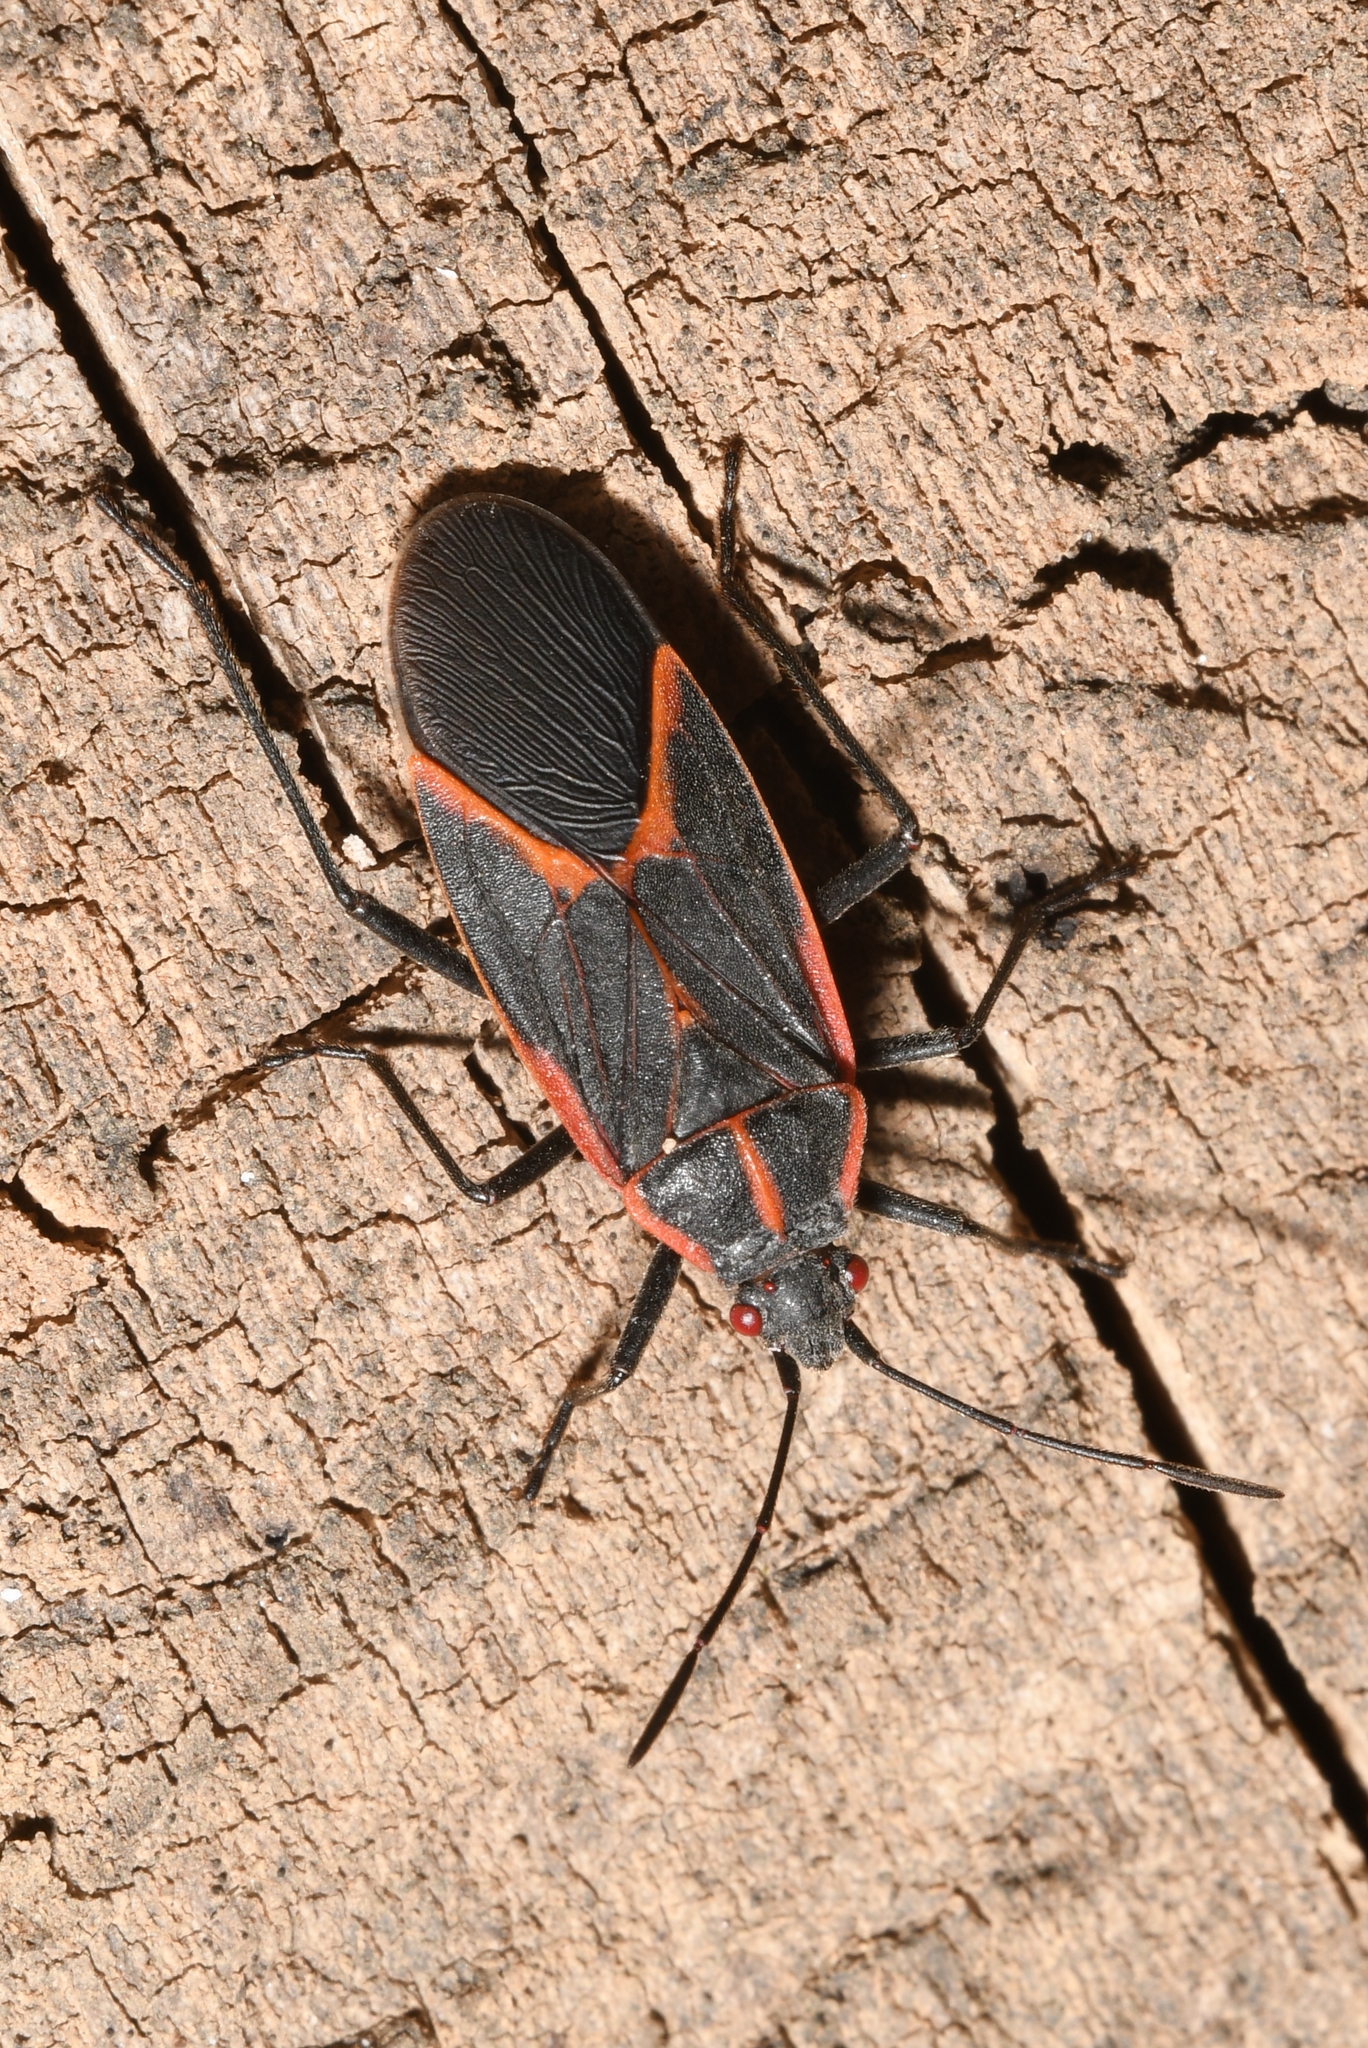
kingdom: Animalia
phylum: Arthropoda
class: Insecta
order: Hemiptera
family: Rhopalidae
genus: Boisea
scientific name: Boisea trivittata
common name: Boxelder bug
